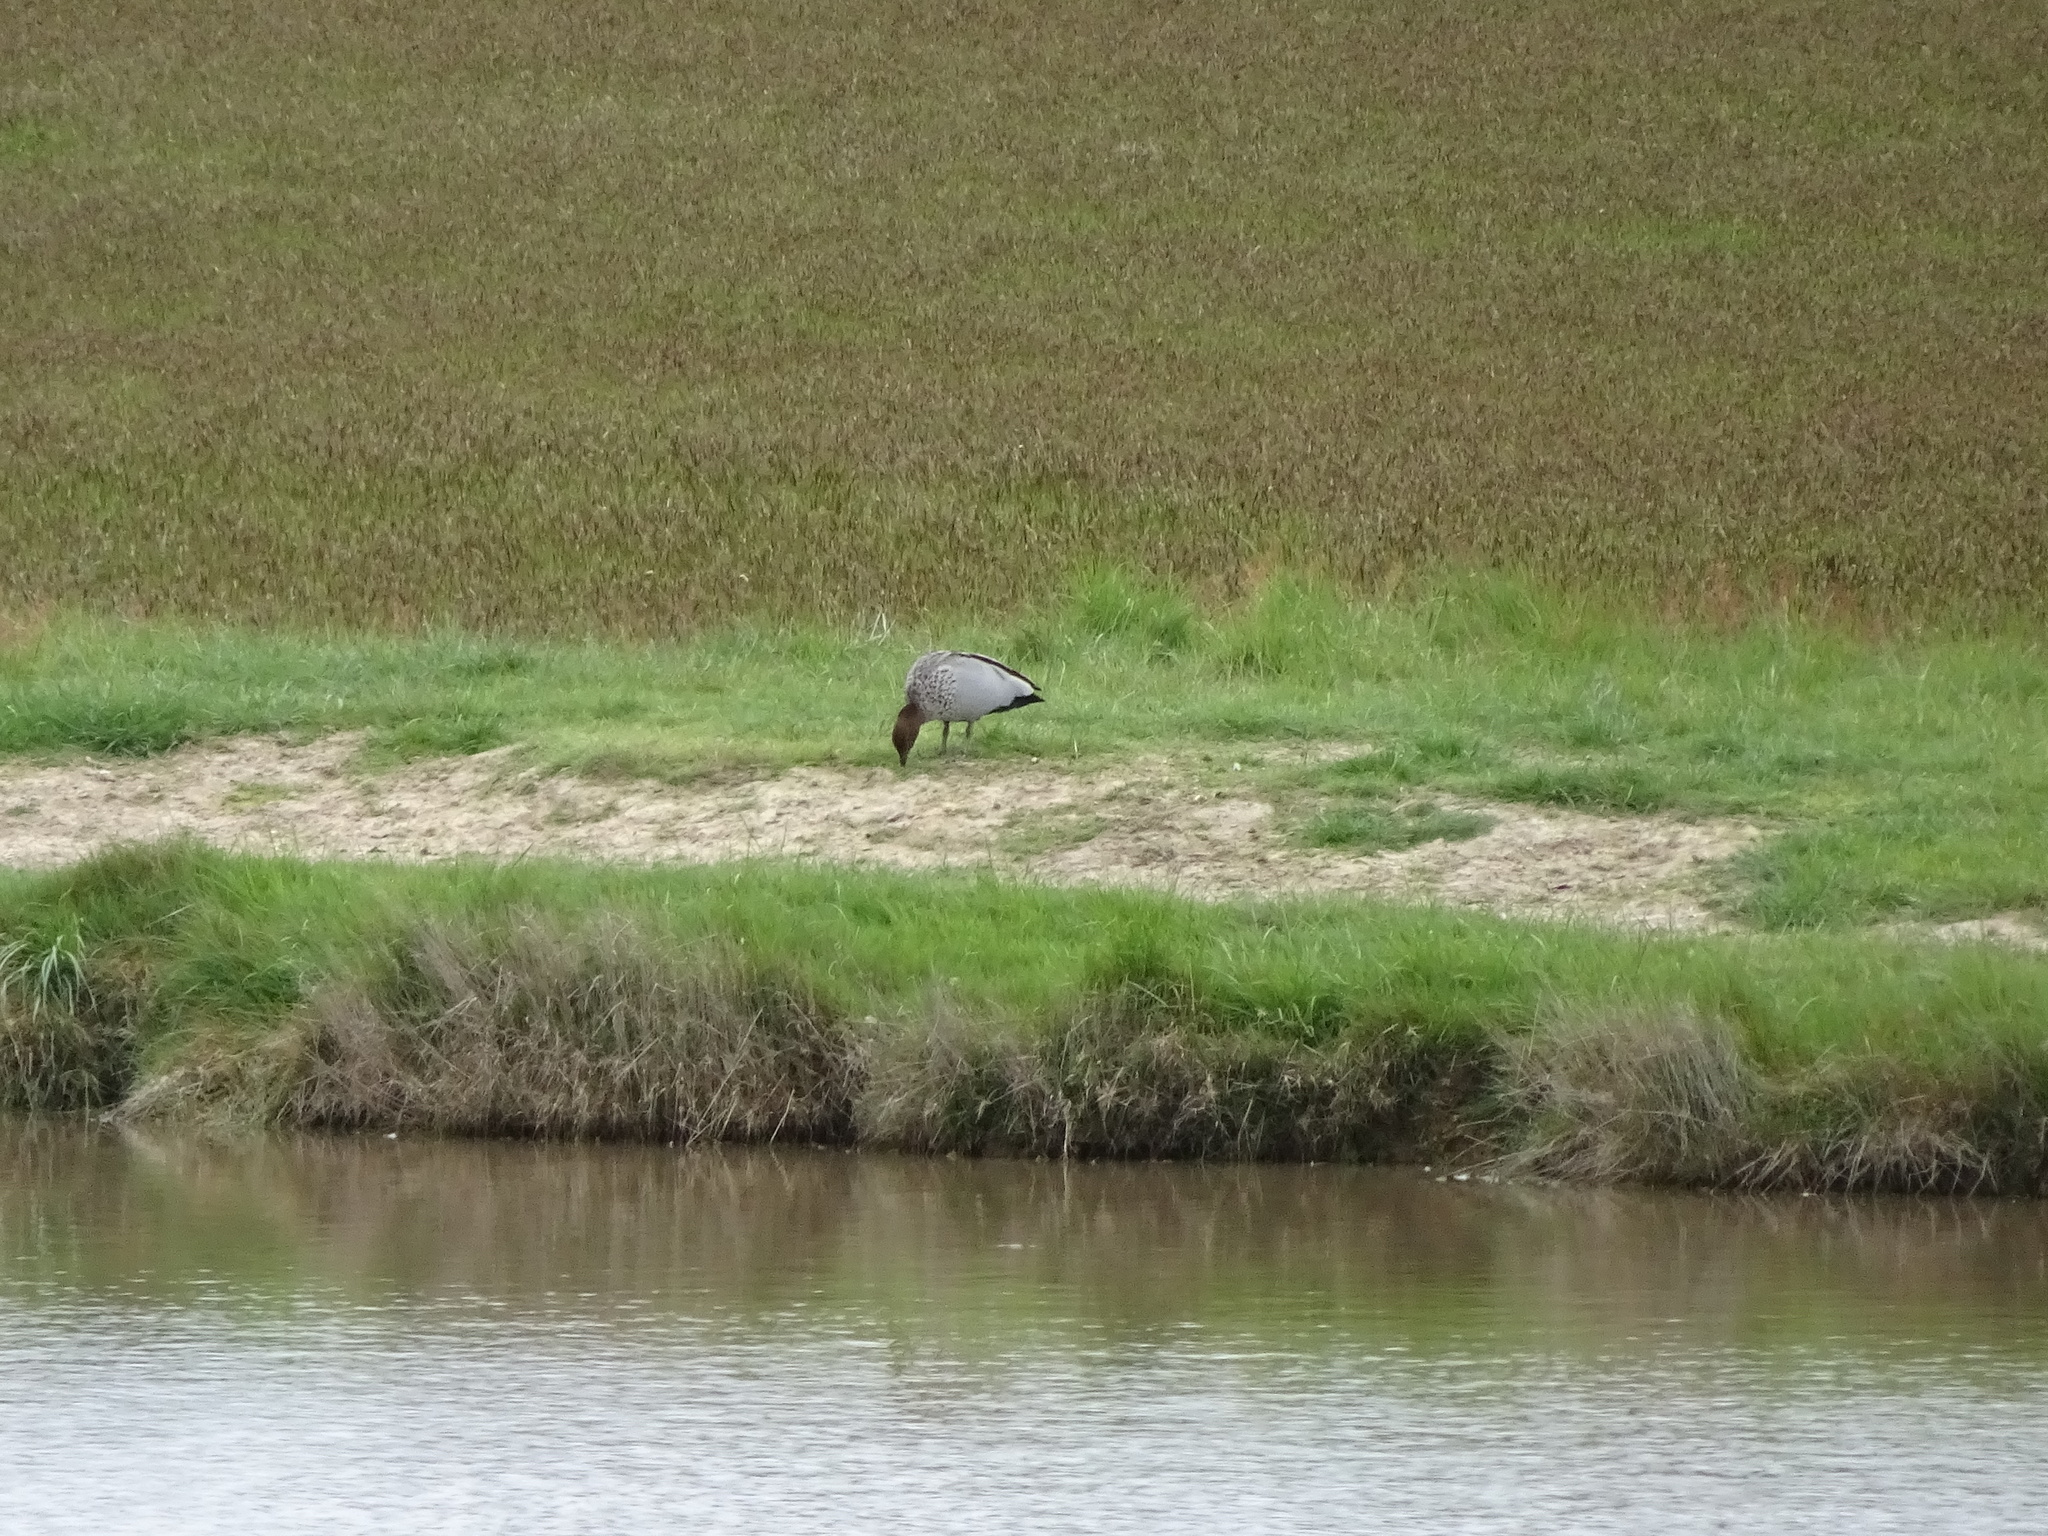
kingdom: Animalia
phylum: Chordata
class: Aves
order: Anseriformes
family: Anatidae
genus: Chenonetta
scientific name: Chenonetta jubata
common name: Maned duck
